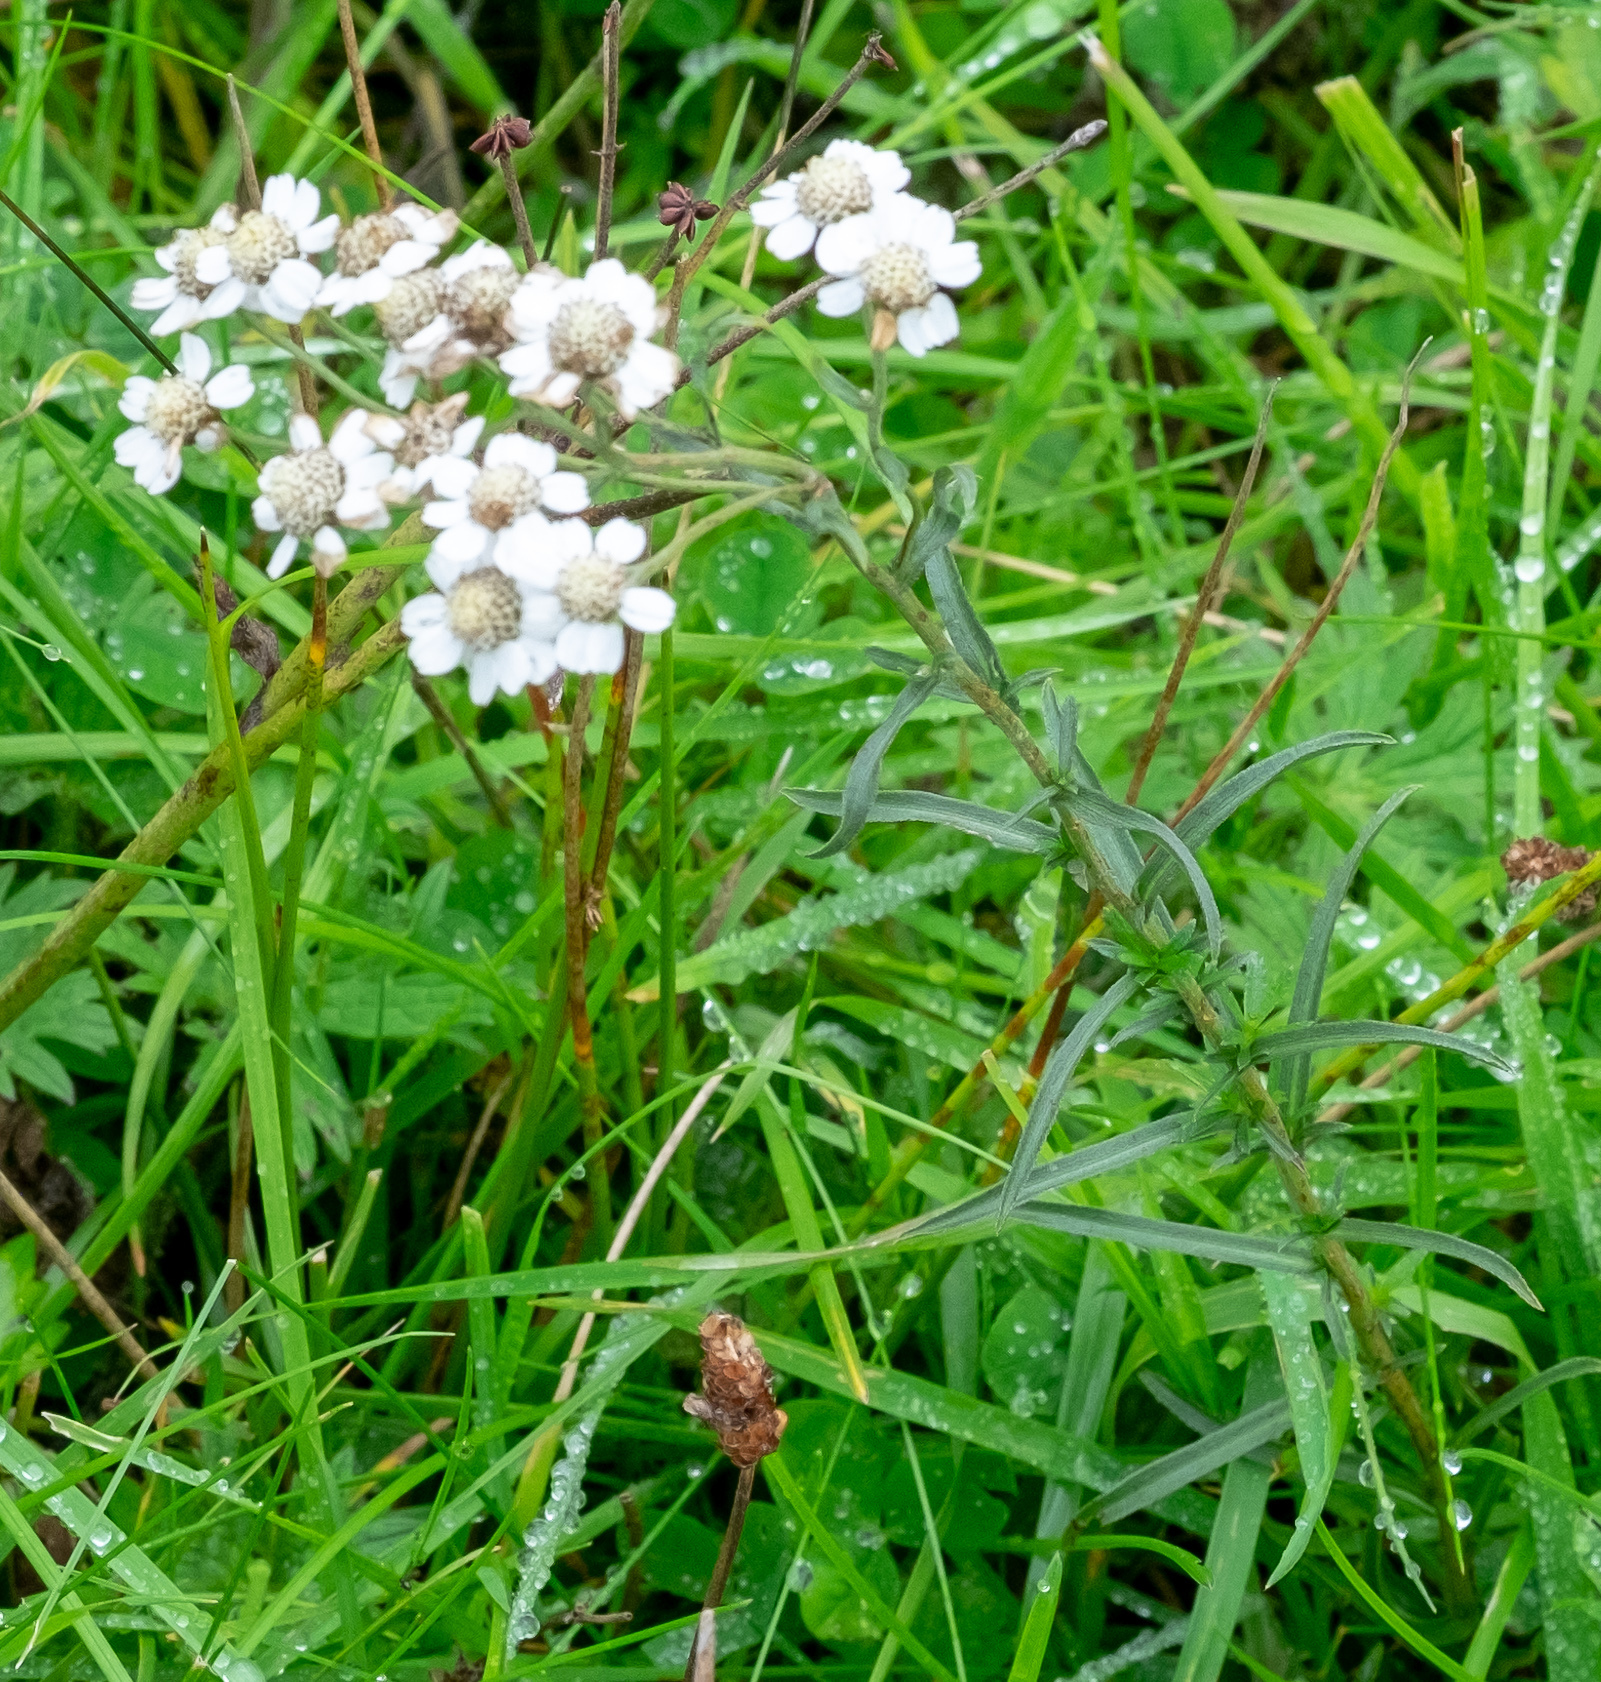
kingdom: Plantae
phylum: Tracheophyta
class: Magnoliopsida
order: Asterales
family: Asteraceae
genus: Achillea
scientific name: Achillea ptarmica
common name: Sneezeweed
